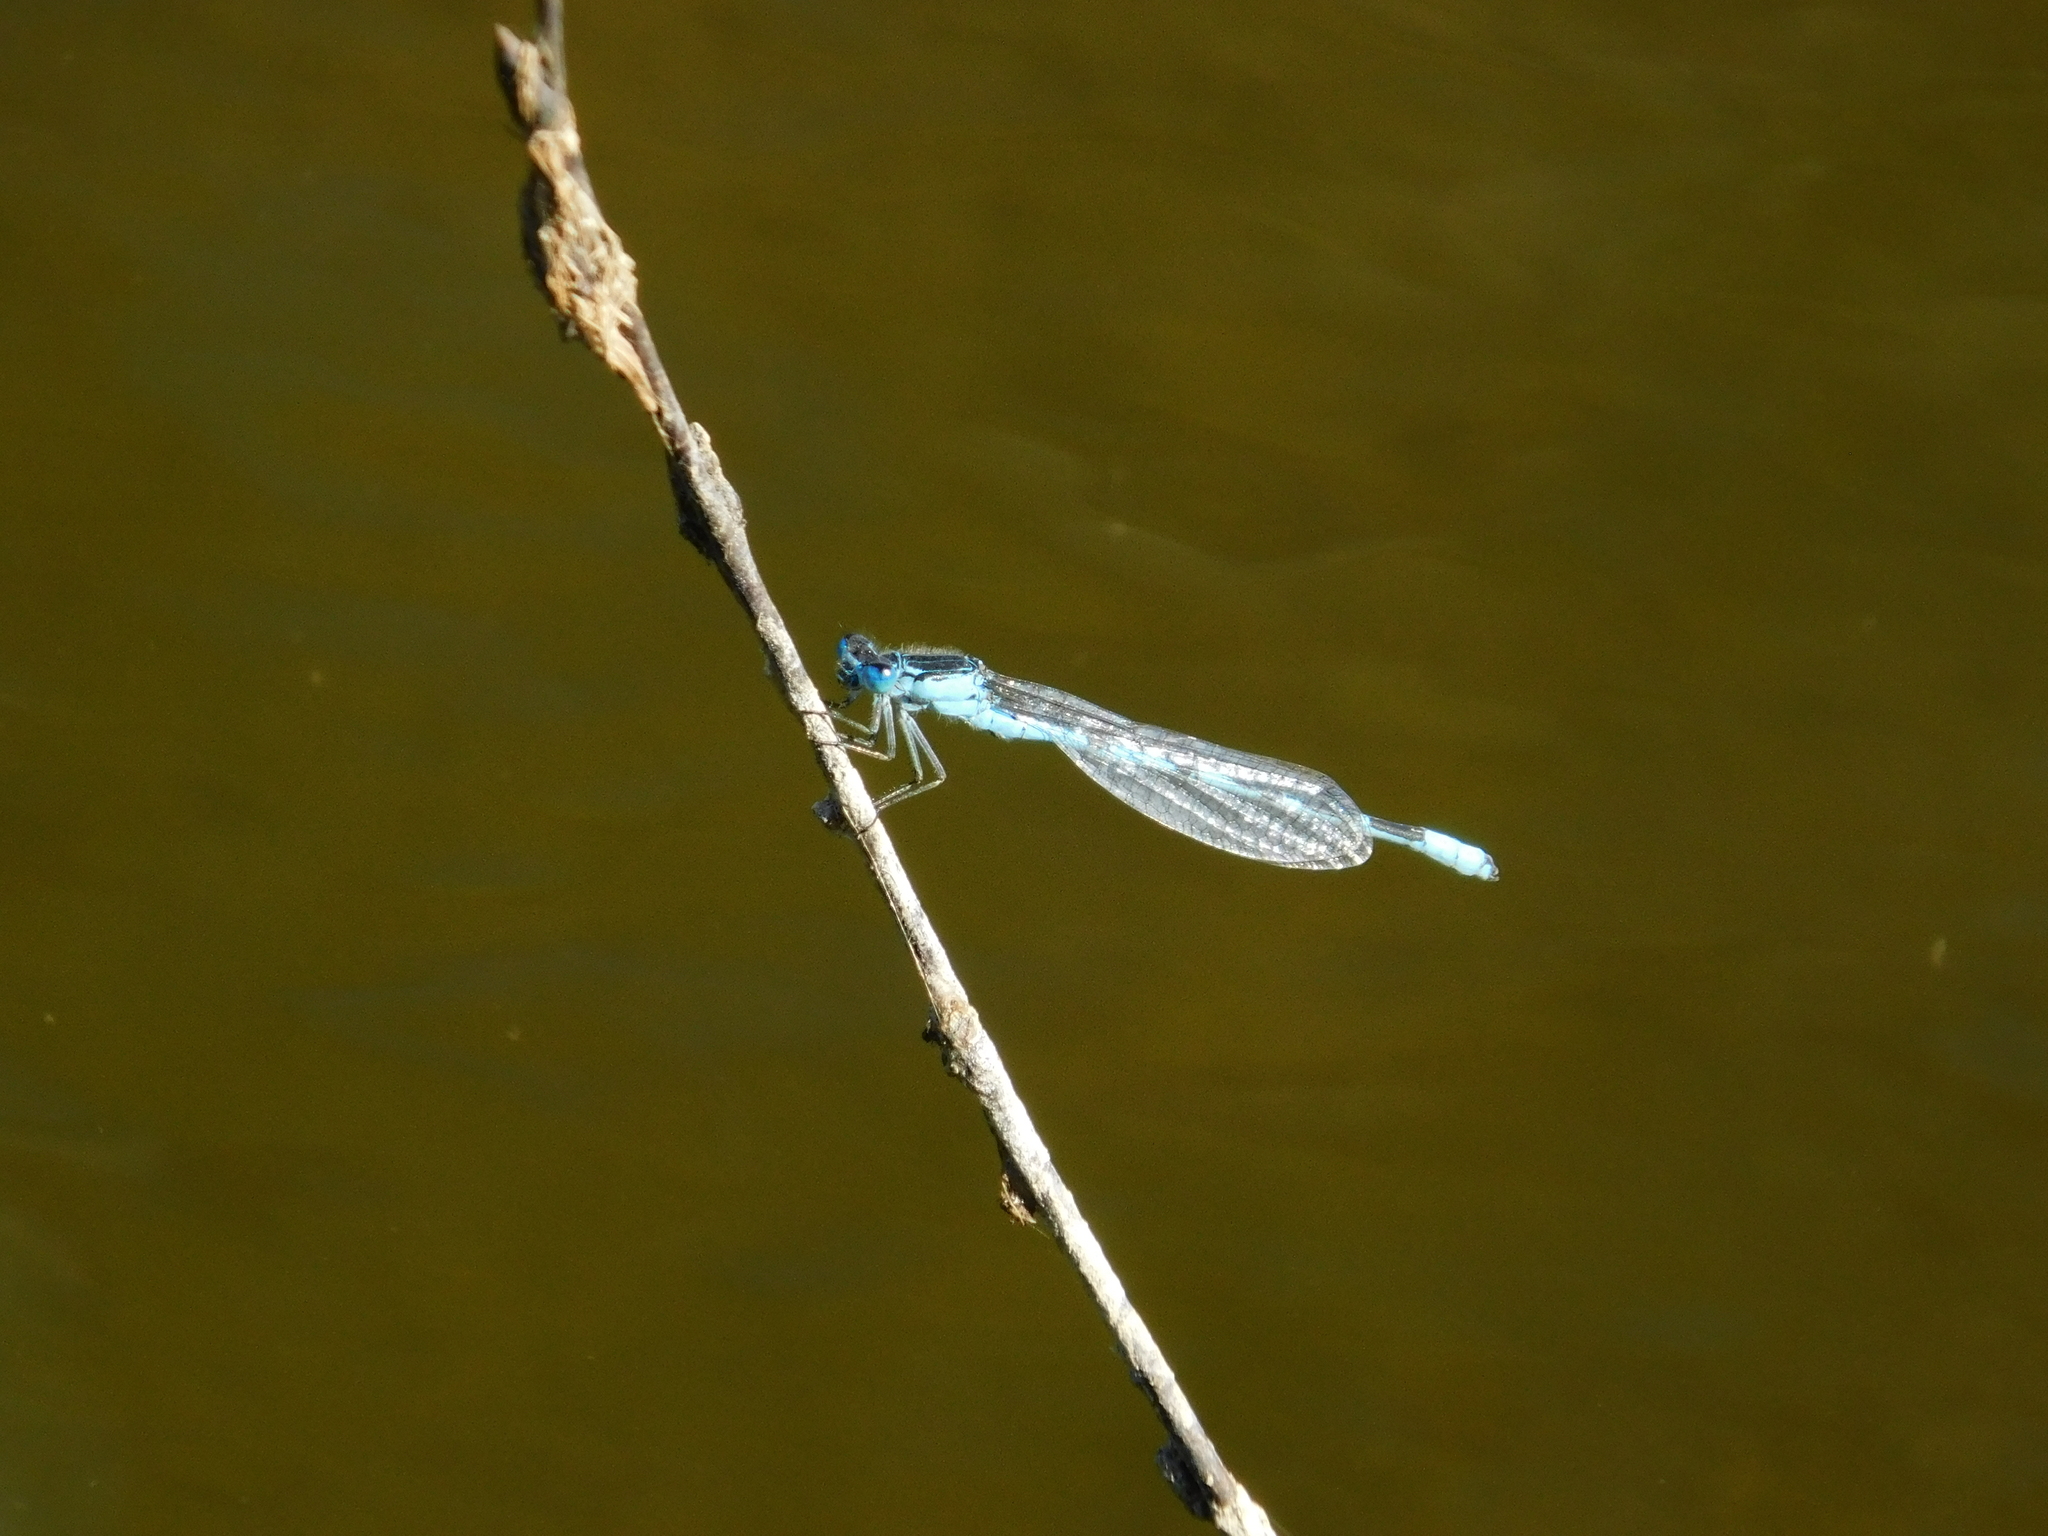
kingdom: Animalia
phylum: Arthropoda
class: Insecta
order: Odonata
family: Coenagrionidae
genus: Enallagma
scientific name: Enallagma cyathigerum
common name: Common blue damselfly
